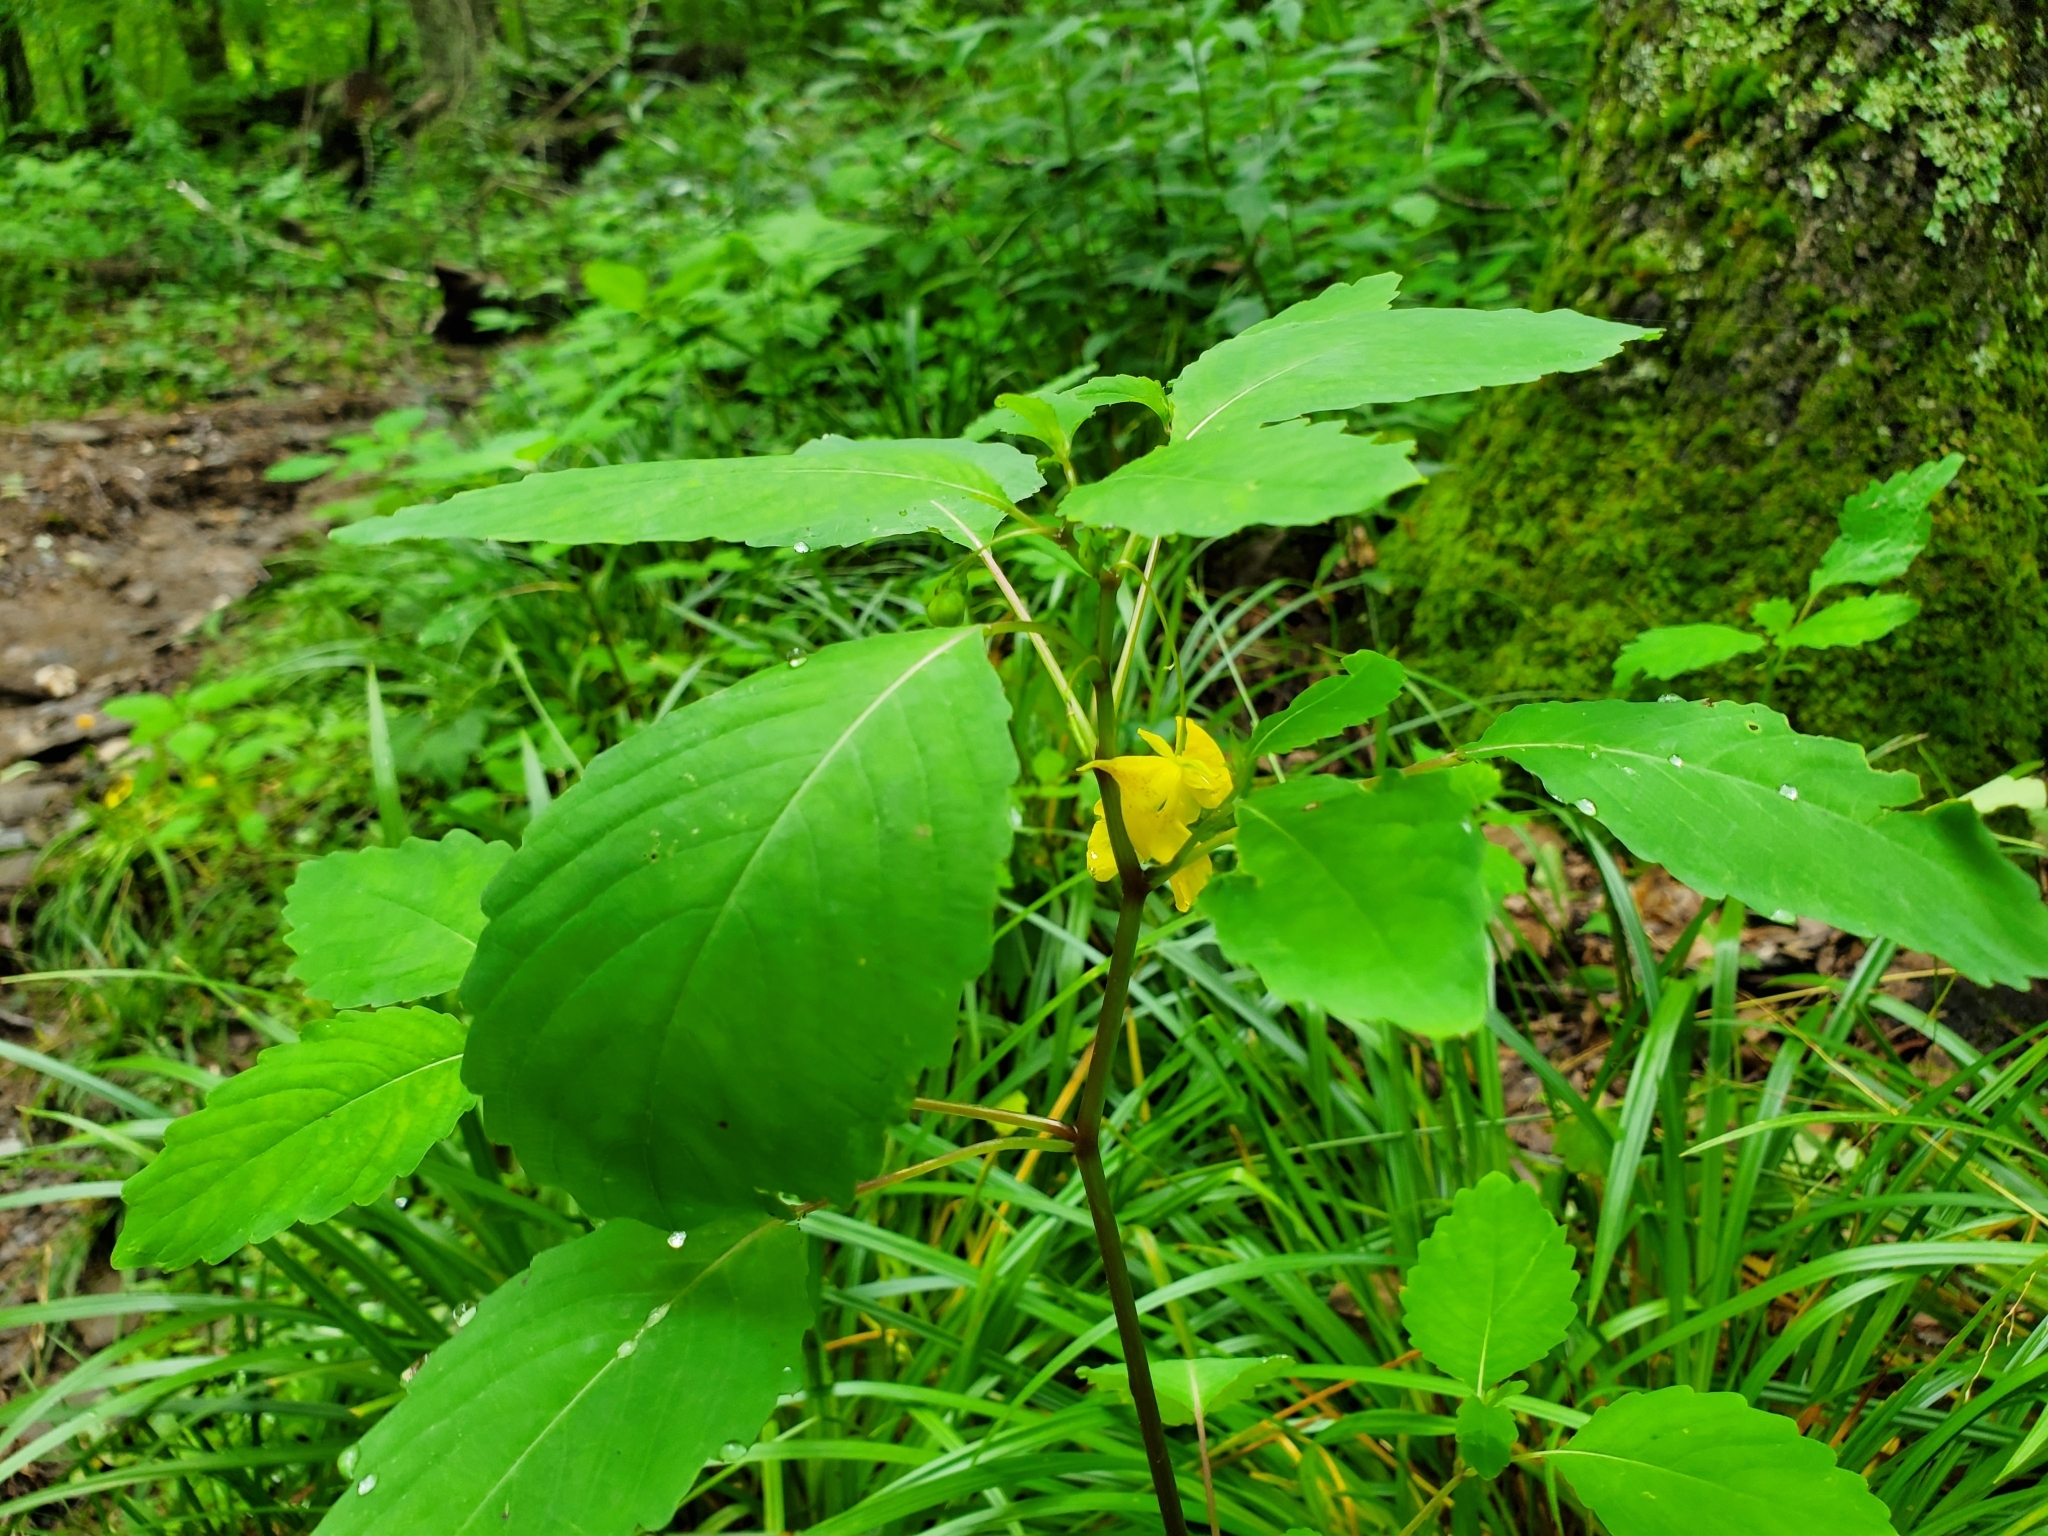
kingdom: Plantae
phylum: Tracheophyta
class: Magnoliopsida
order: Ericales
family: Balsaminaceae
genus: Impatiens
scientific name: Impatiens pallida
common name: Pale snapweed
